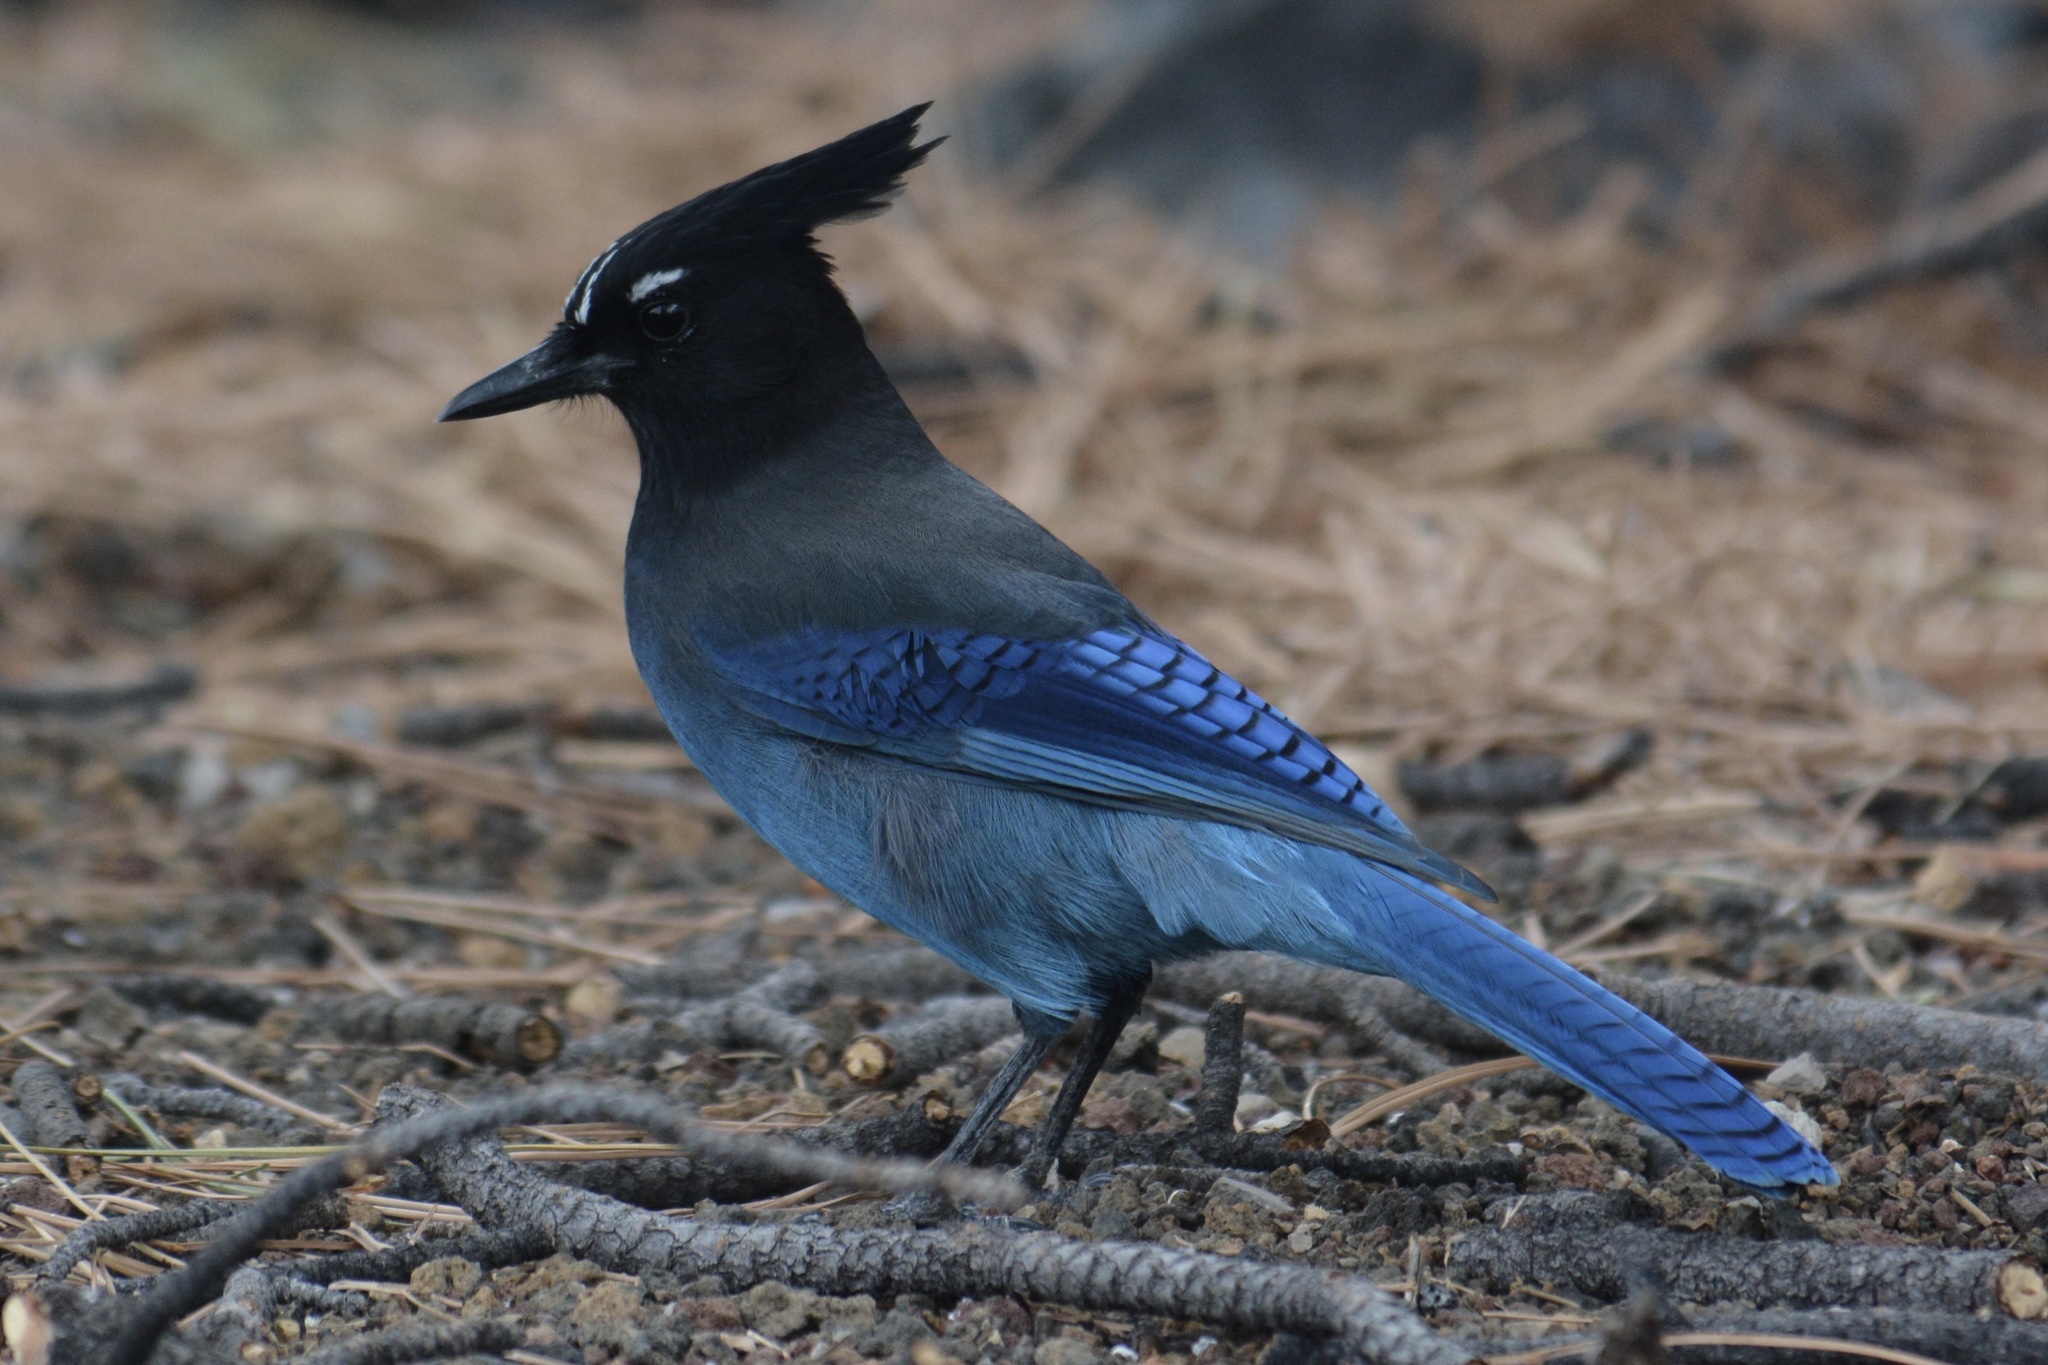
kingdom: Animalia
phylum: Chordata
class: Aves
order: Passeriformes
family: Corvidae
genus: Cyanocitta
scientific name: Cyanocitta stelleri
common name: Steller's jay
